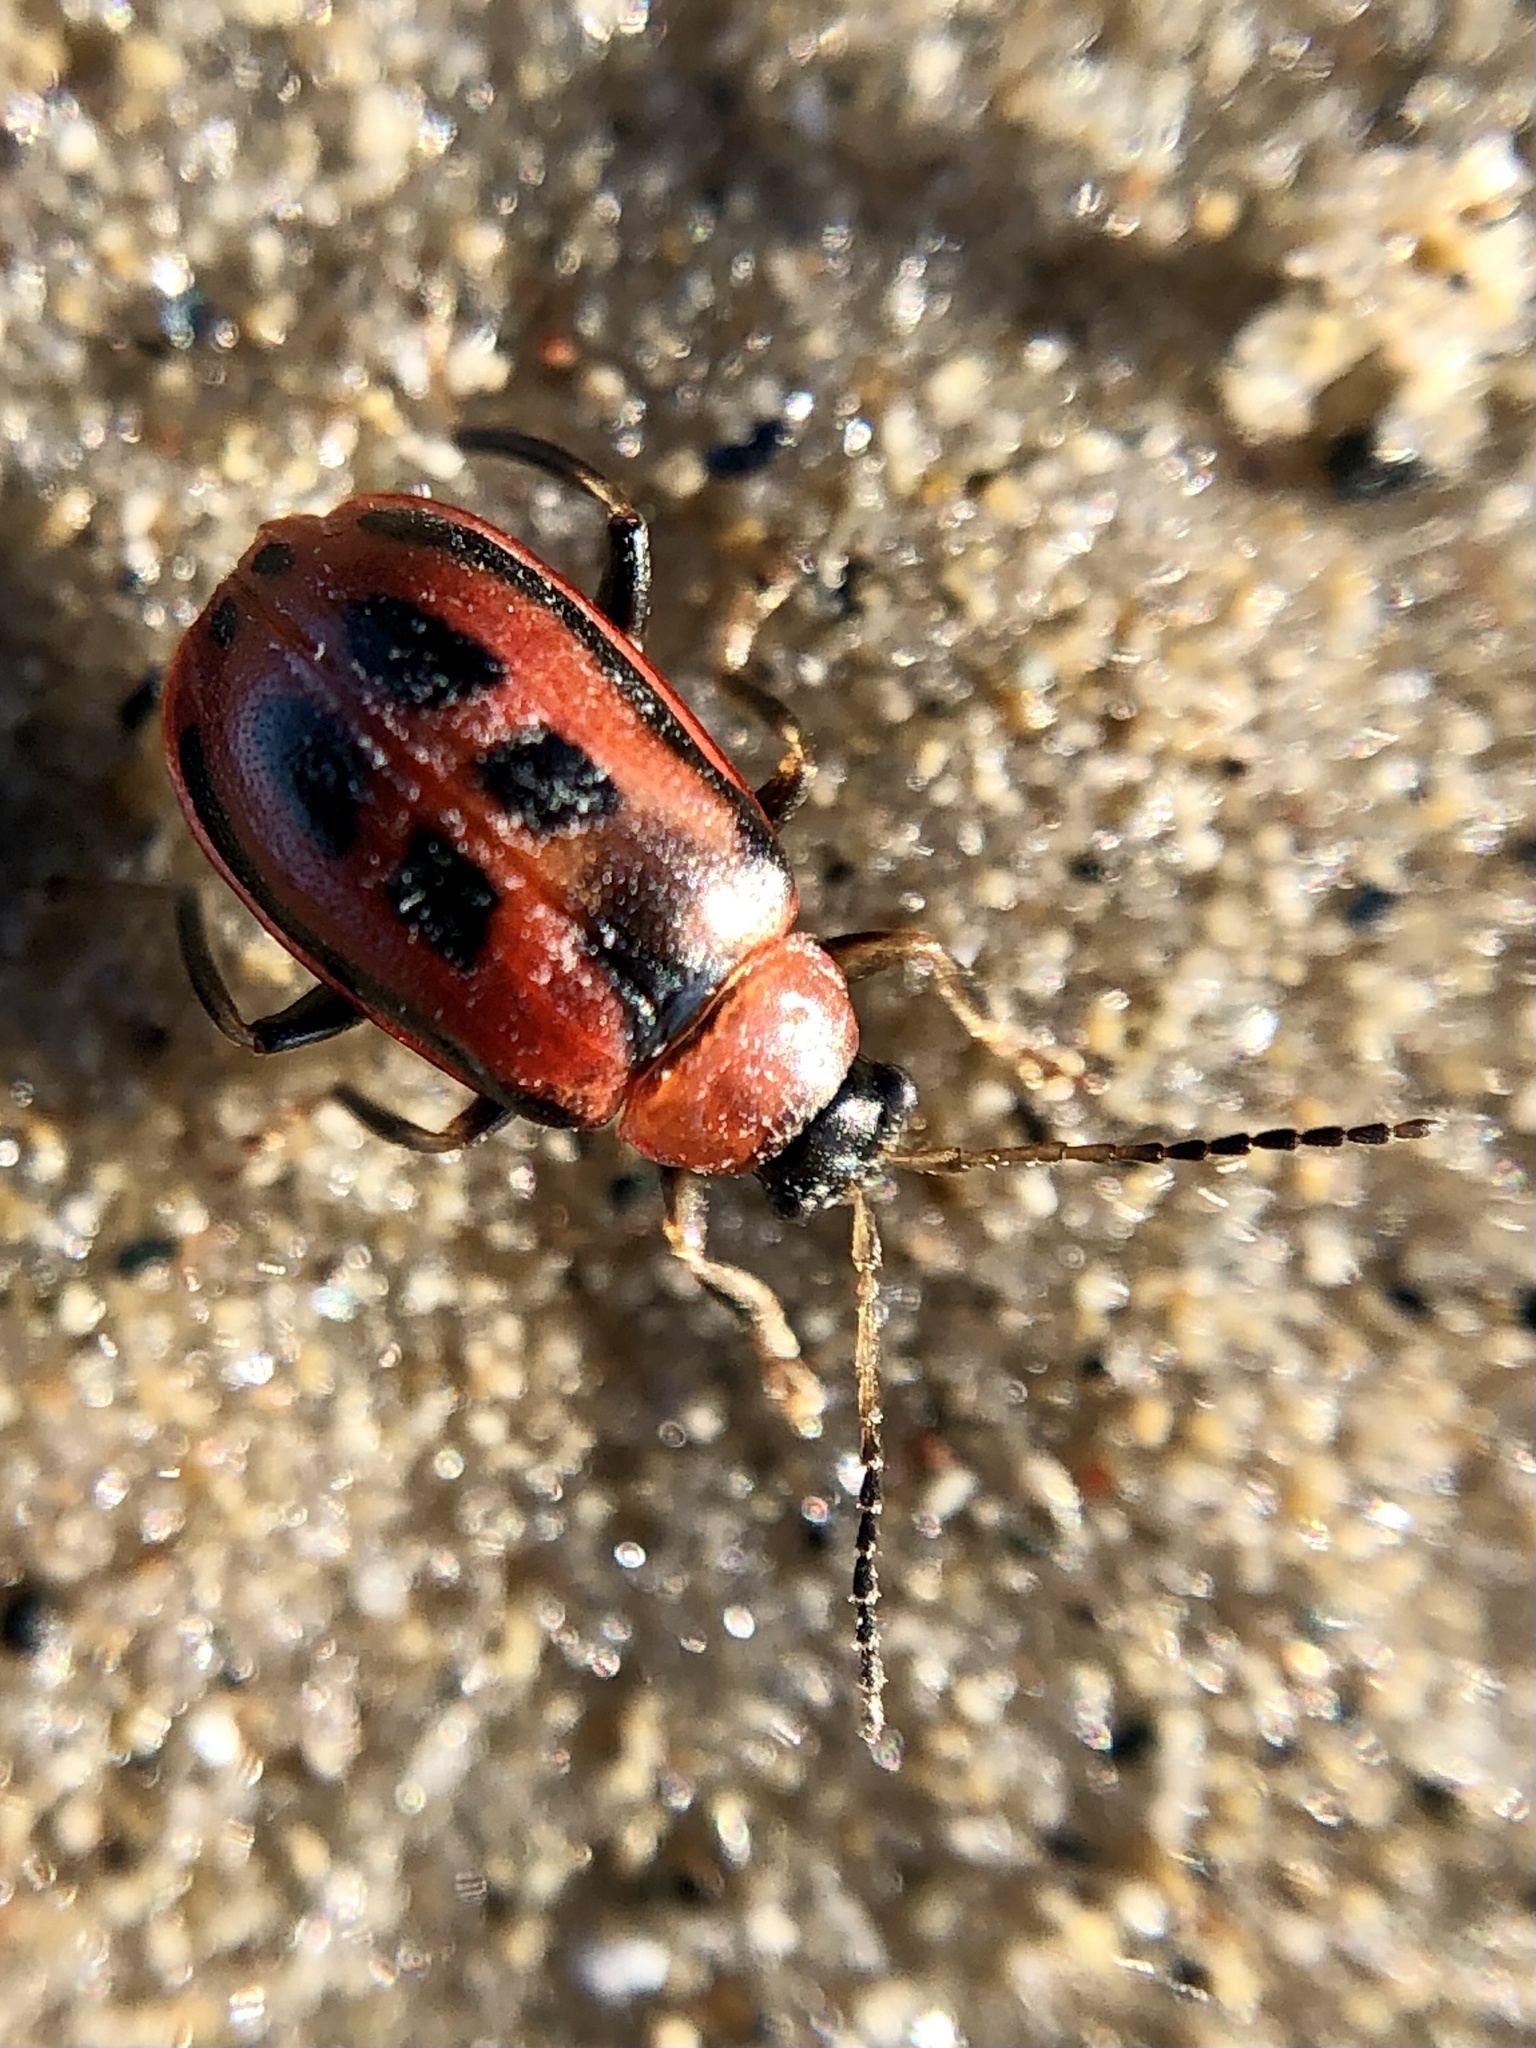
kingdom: Animalia
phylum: Arthropoda
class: Insecta
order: Coleoptera
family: Chrysomelidae
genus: Cerotoma
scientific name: Cerotoma trifurcata
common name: Bean leaf beetle
